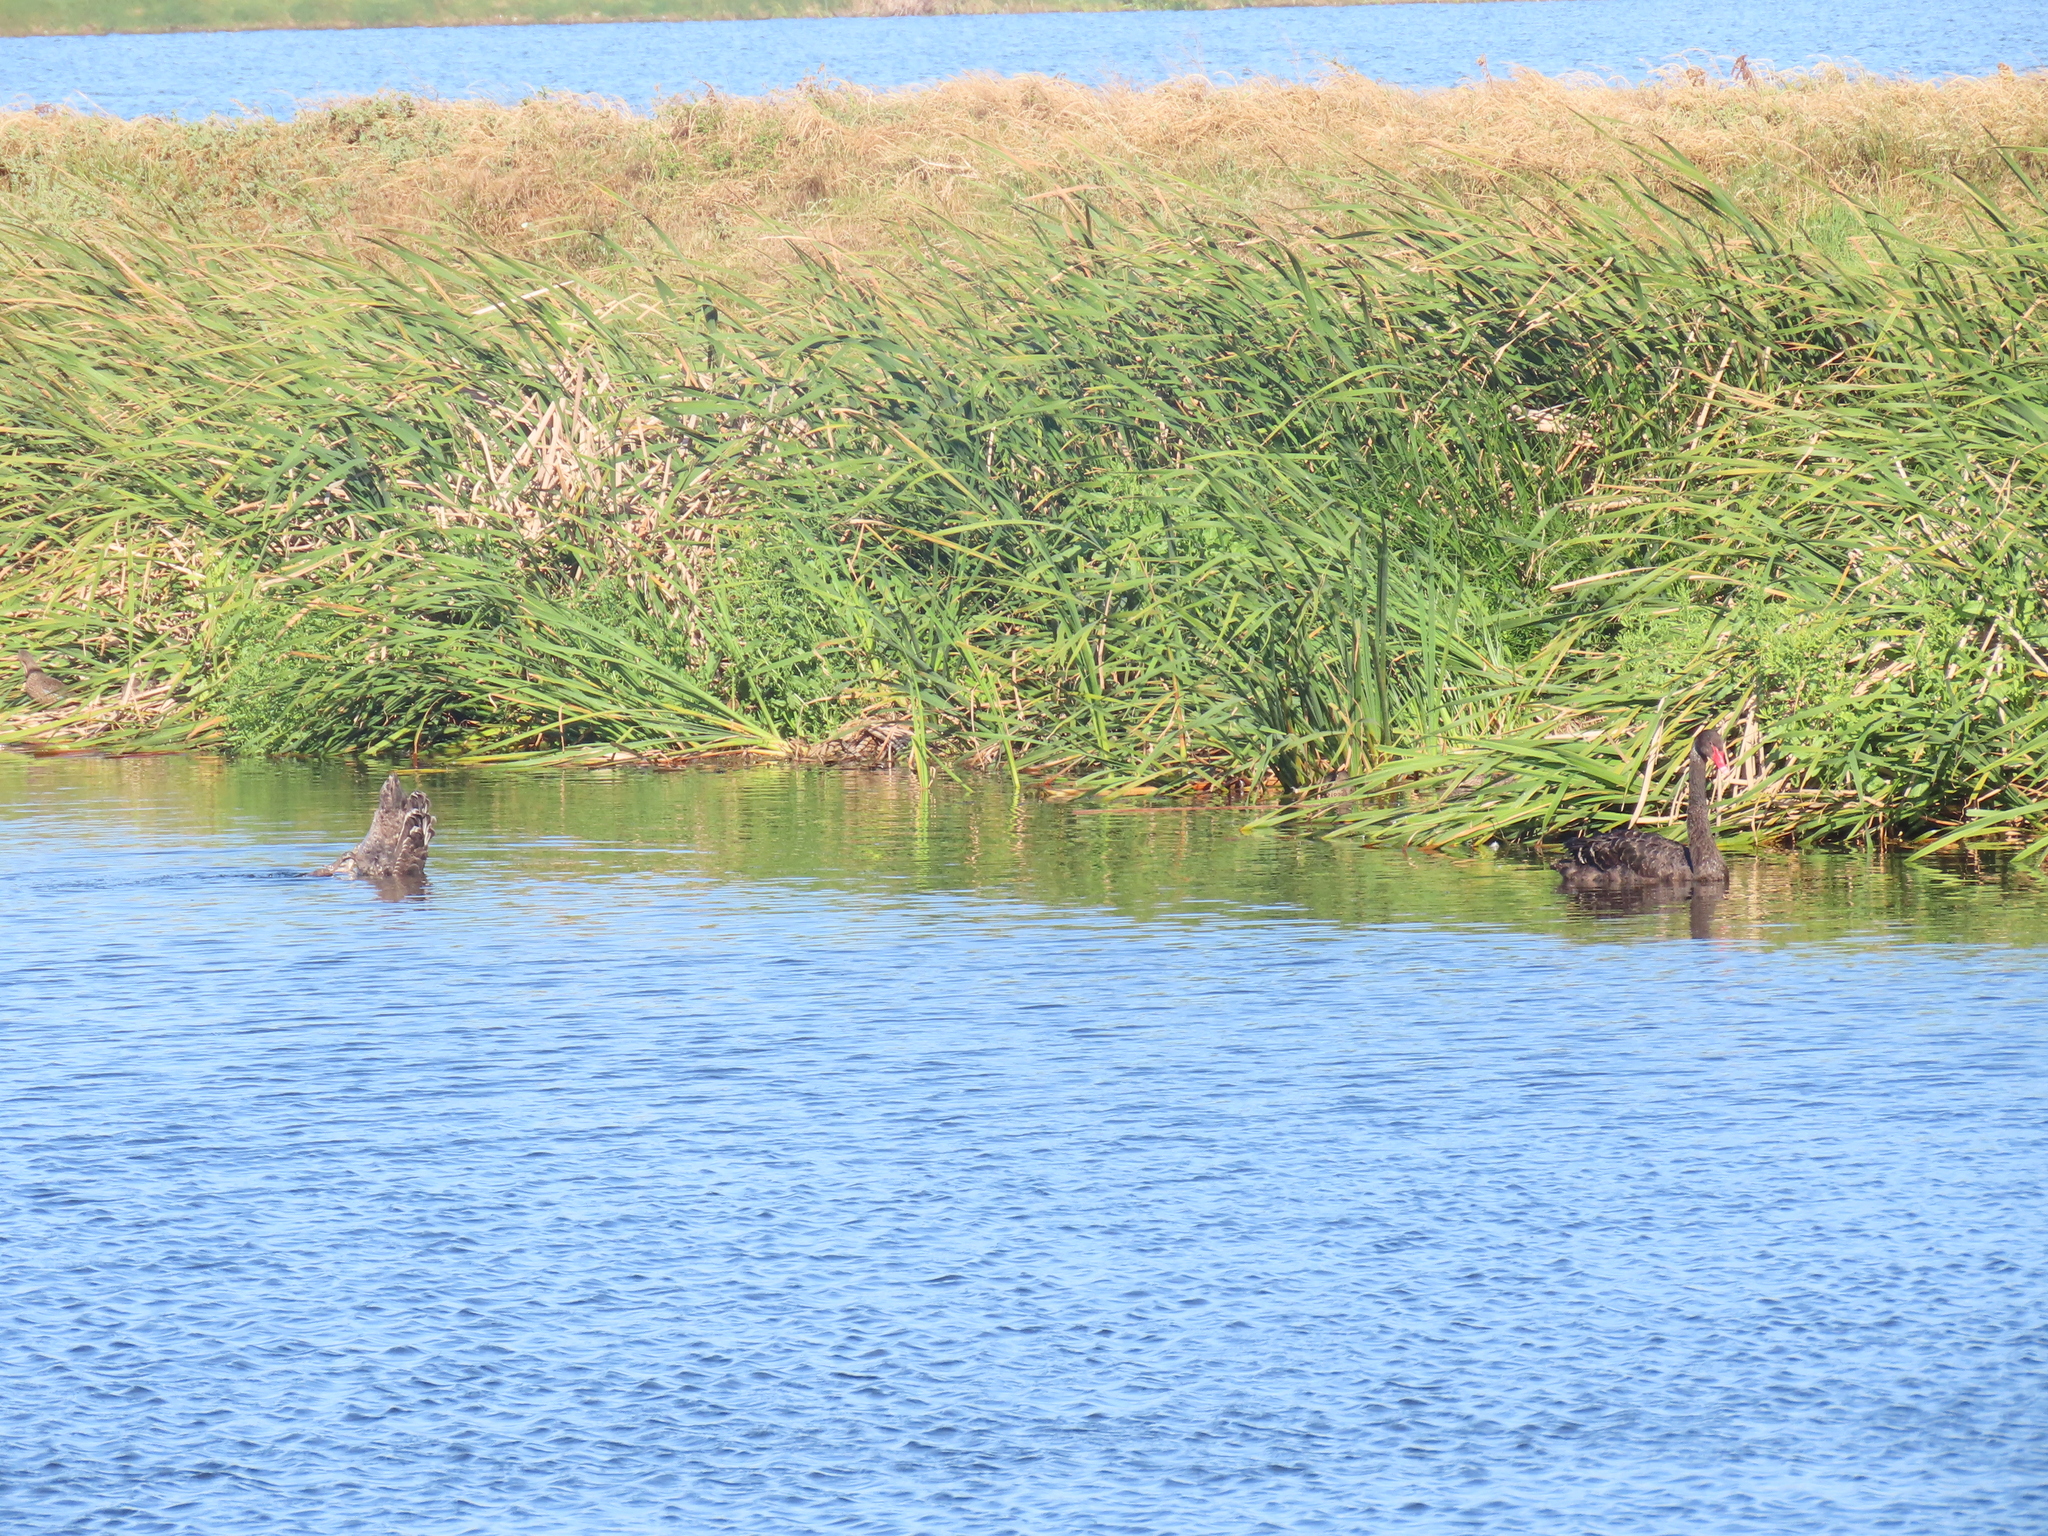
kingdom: Animalia
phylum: Chordata
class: Aves
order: Anseriformes
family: Anatidae
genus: Cygnus
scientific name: Cygnus atratus
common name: Black swan
